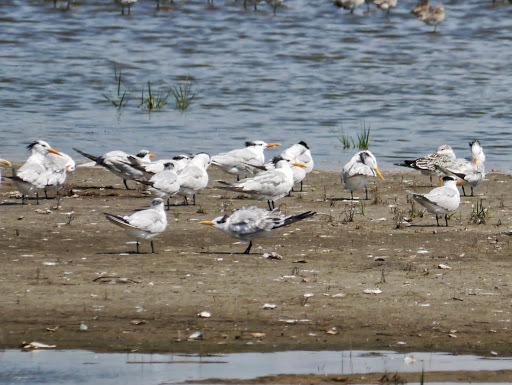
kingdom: Animalia
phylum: Chordata
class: Aves
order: Charadriiformes
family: Laridae
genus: Thalasseus
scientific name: Thalasseus maximus
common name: Royal tern
